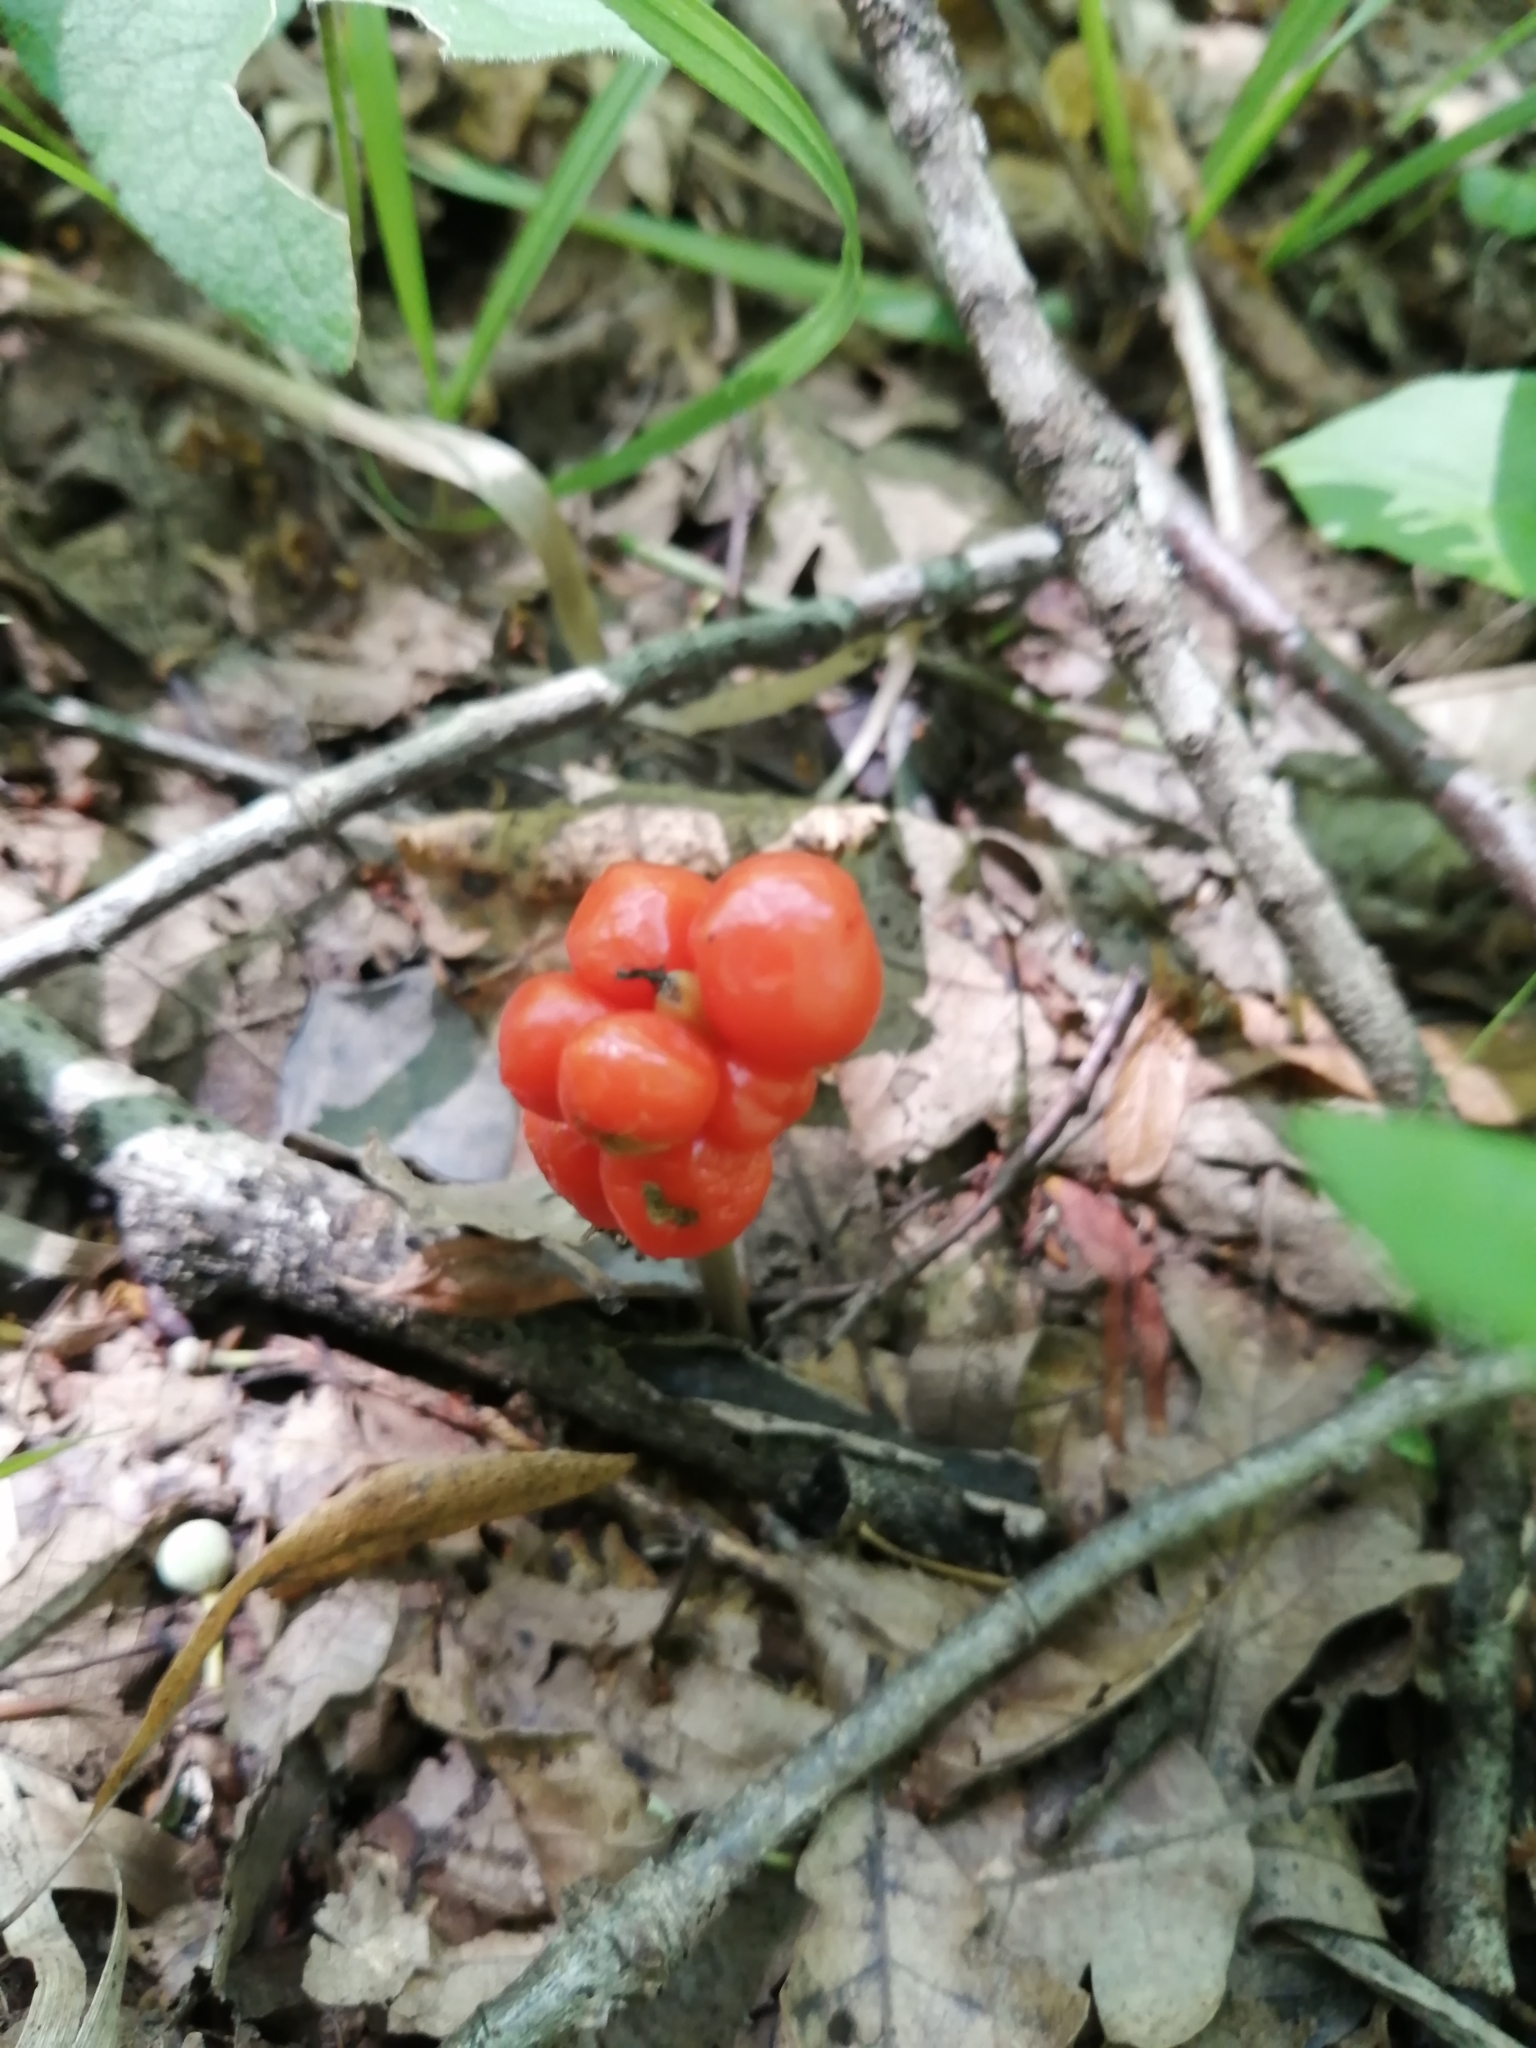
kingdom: Plantae
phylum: Tracheophyta
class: Liliopsida
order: Alismatales
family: Araceae
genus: Arum
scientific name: Arum maculatum
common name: Lords-and-ladies
